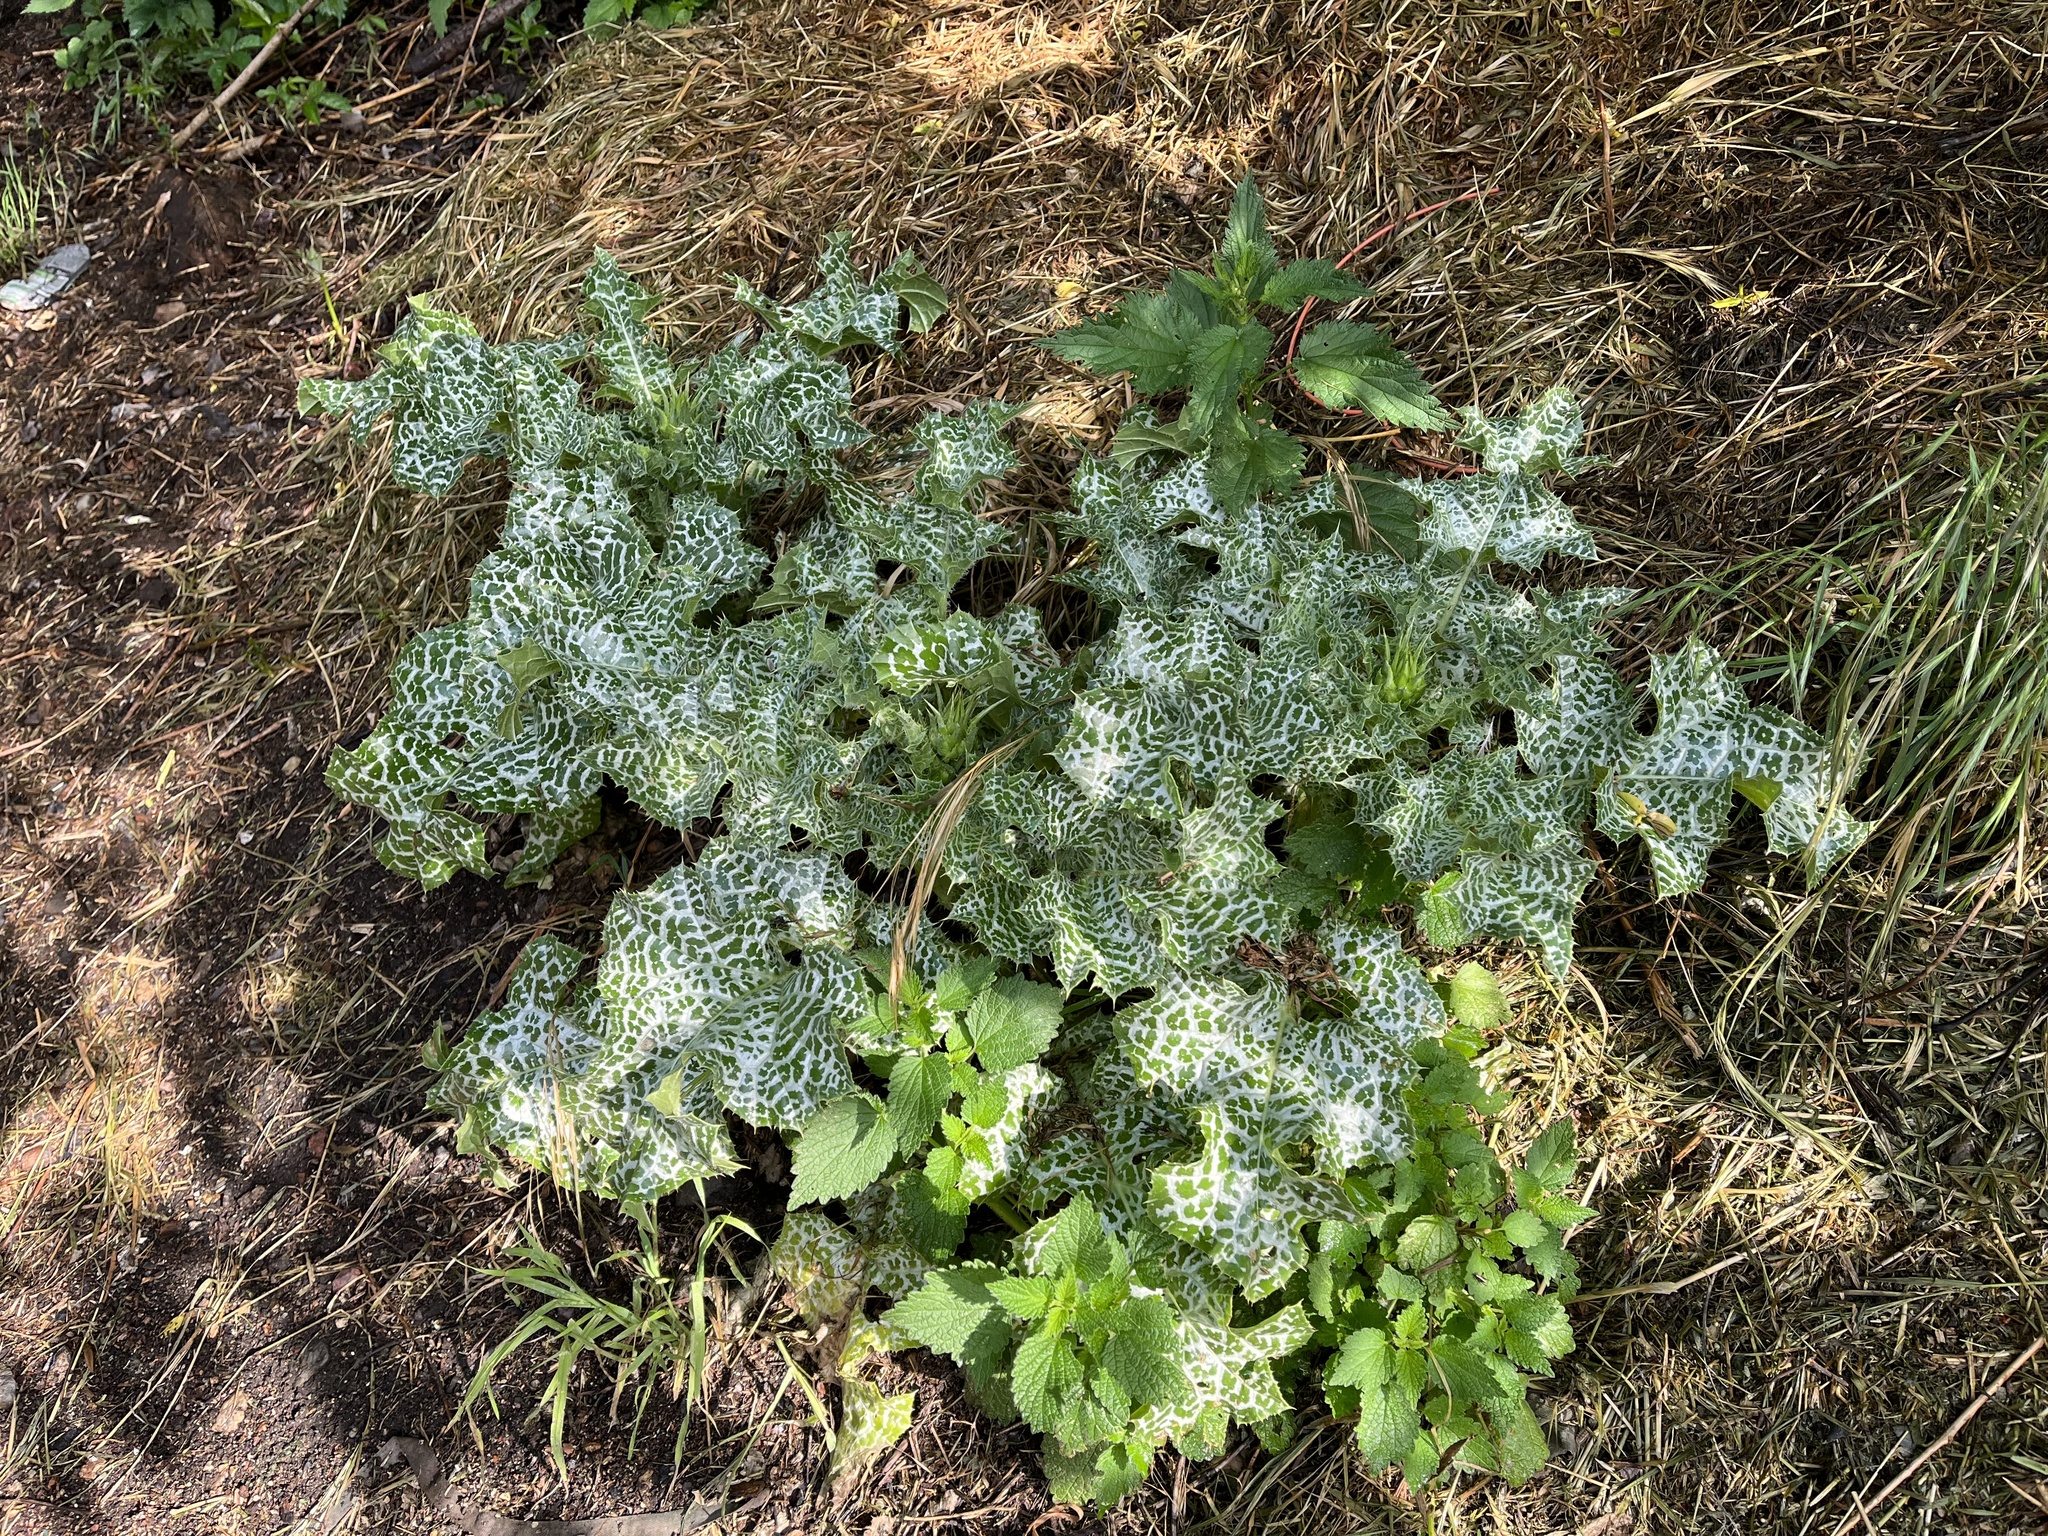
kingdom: Plantae
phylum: Tracheophyta
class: Magnoliopsida
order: Asterales
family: Asteraceae
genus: Silybum
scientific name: Silybum marianum
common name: Milk thistle
